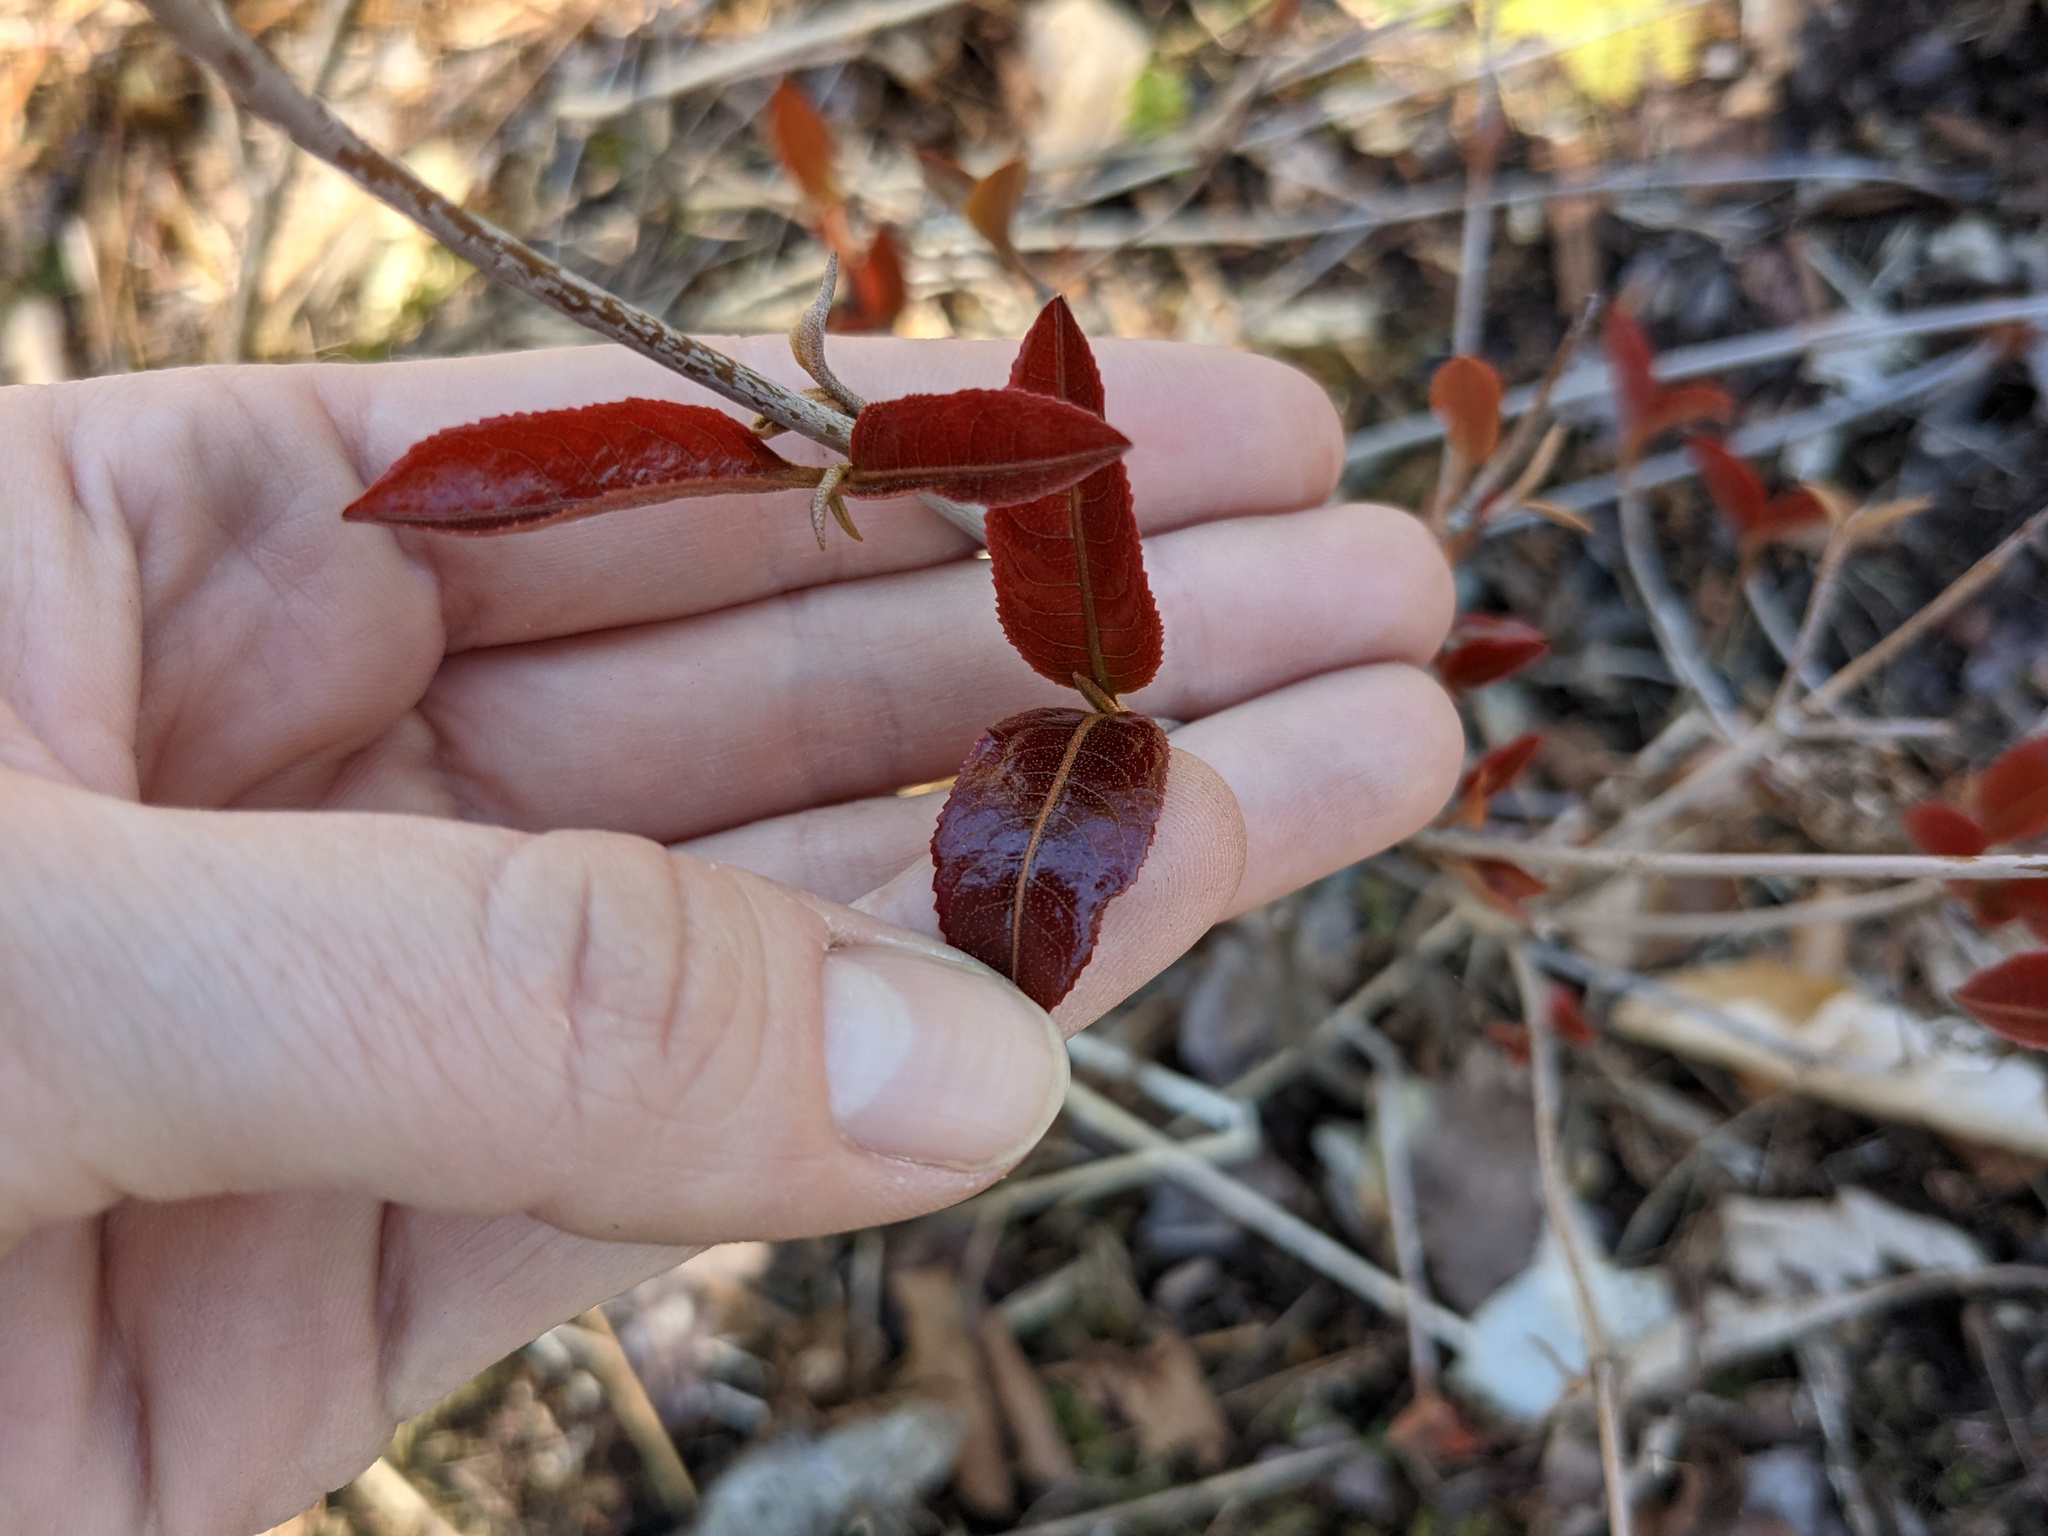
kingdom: Plantae
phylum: Tracheophyta
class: Magnoliopsida
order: Dipsacales
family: Viburnaceae
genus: Viburnum
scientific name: Viburnum cassinoides
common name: Swamp haw
